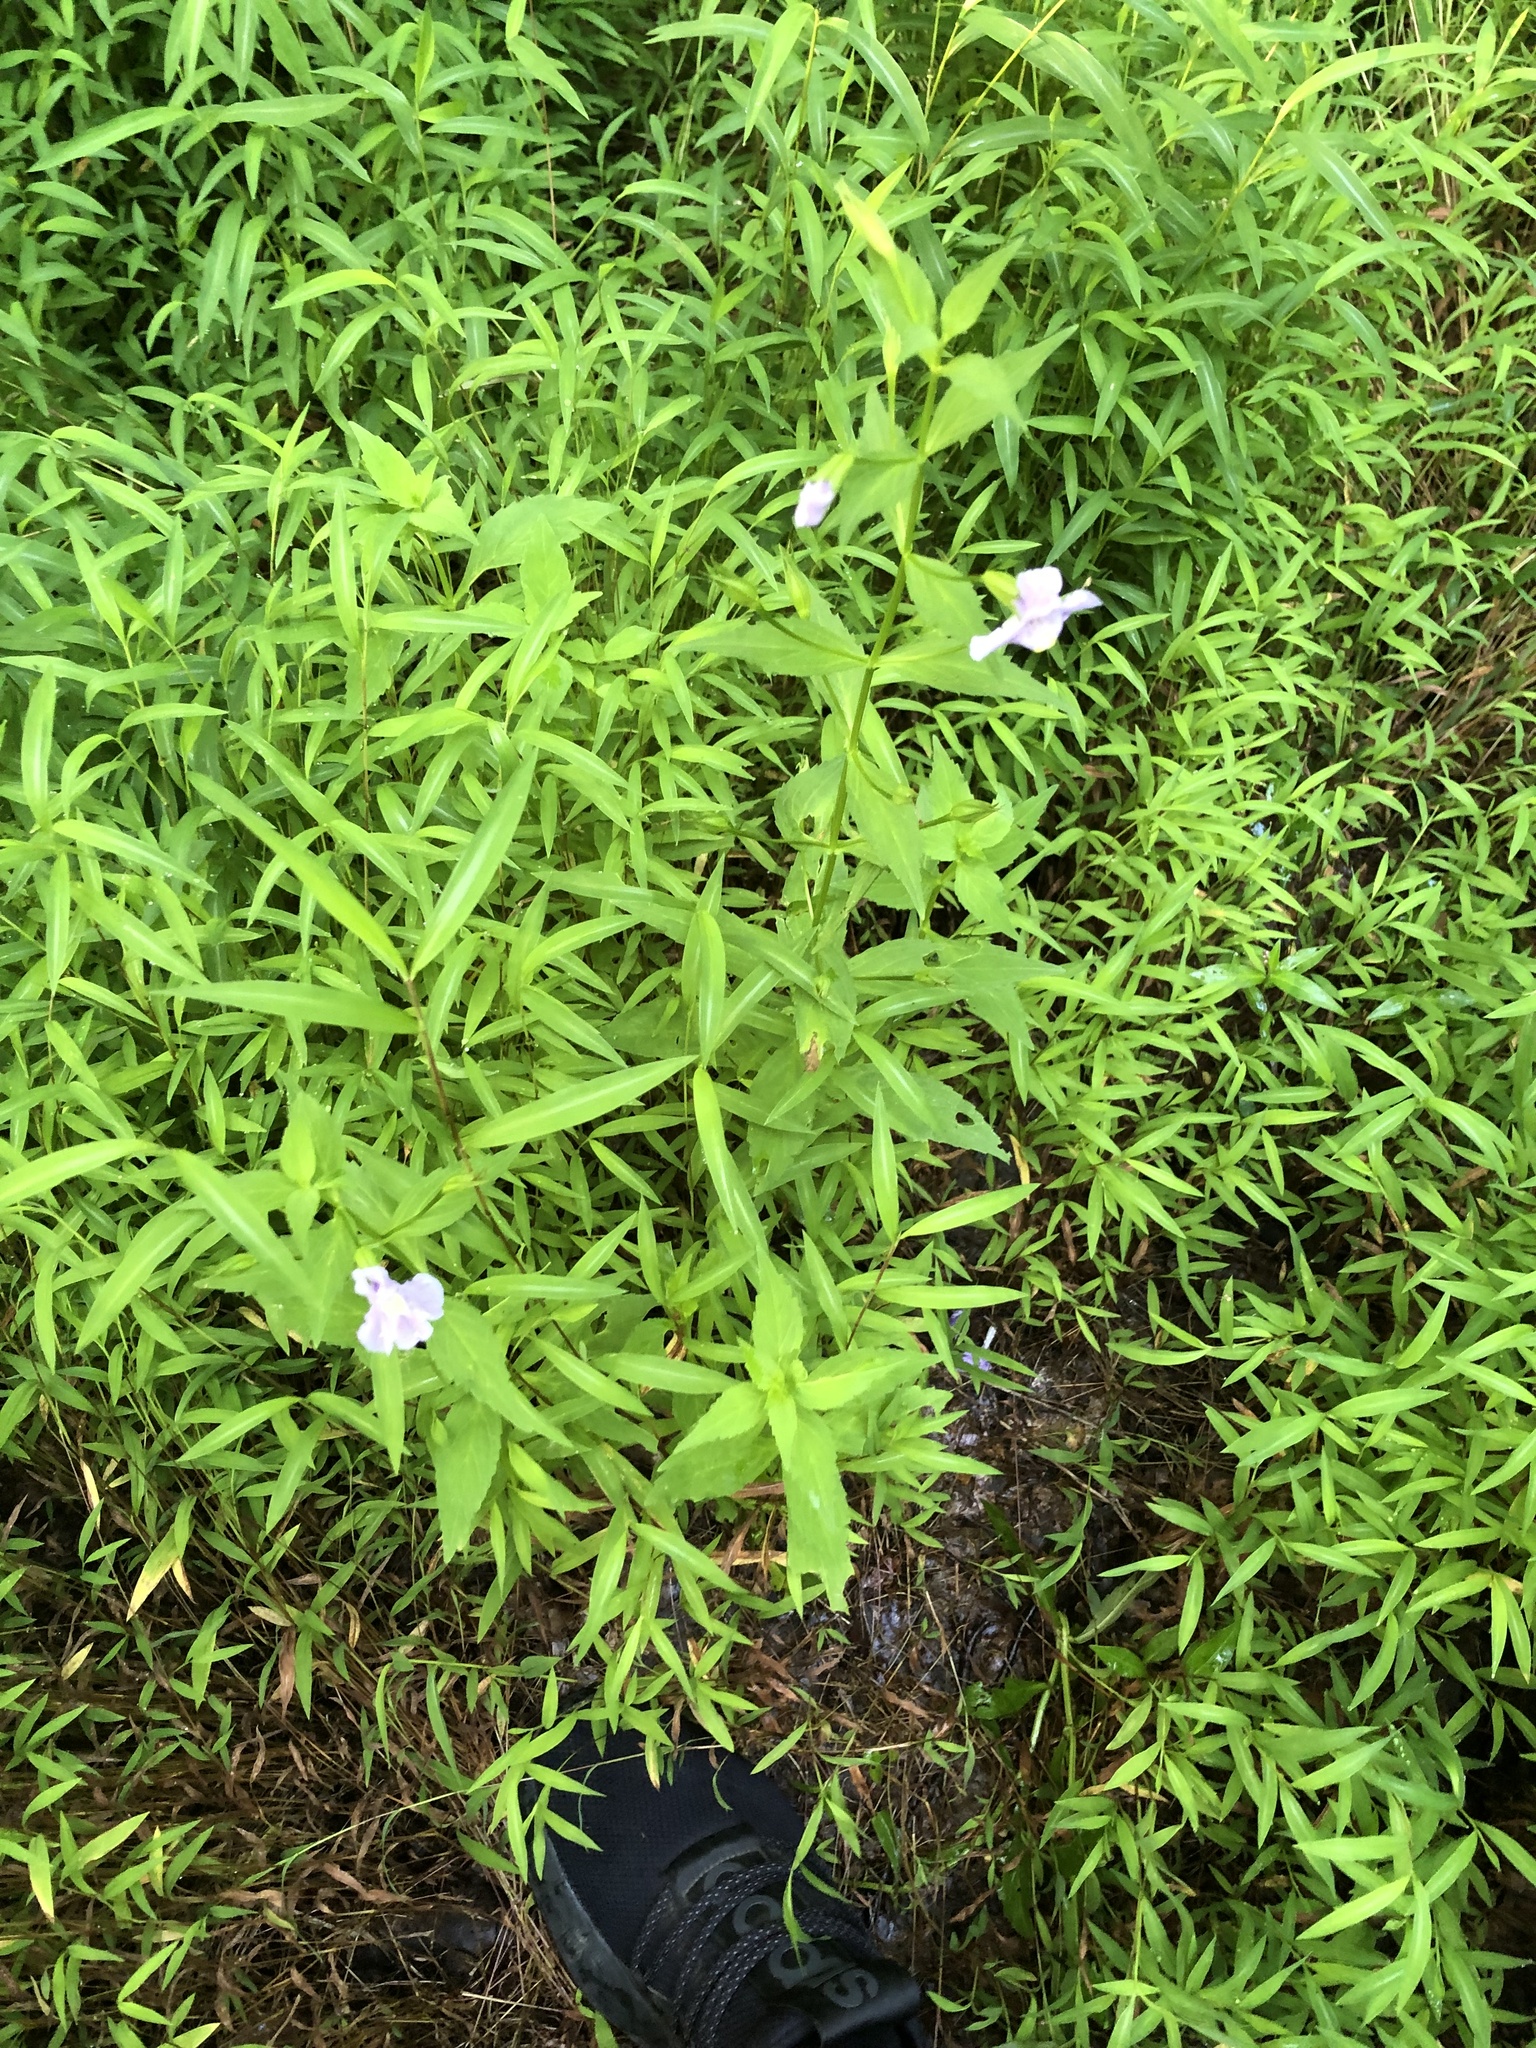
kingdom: Plantae
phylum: Tracheophyta
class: Magnoliopsida
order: Lamiales
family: Phrymaceae
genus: Mimulus
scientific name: Mimulus ringens
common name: Allegheny monkeyflower
